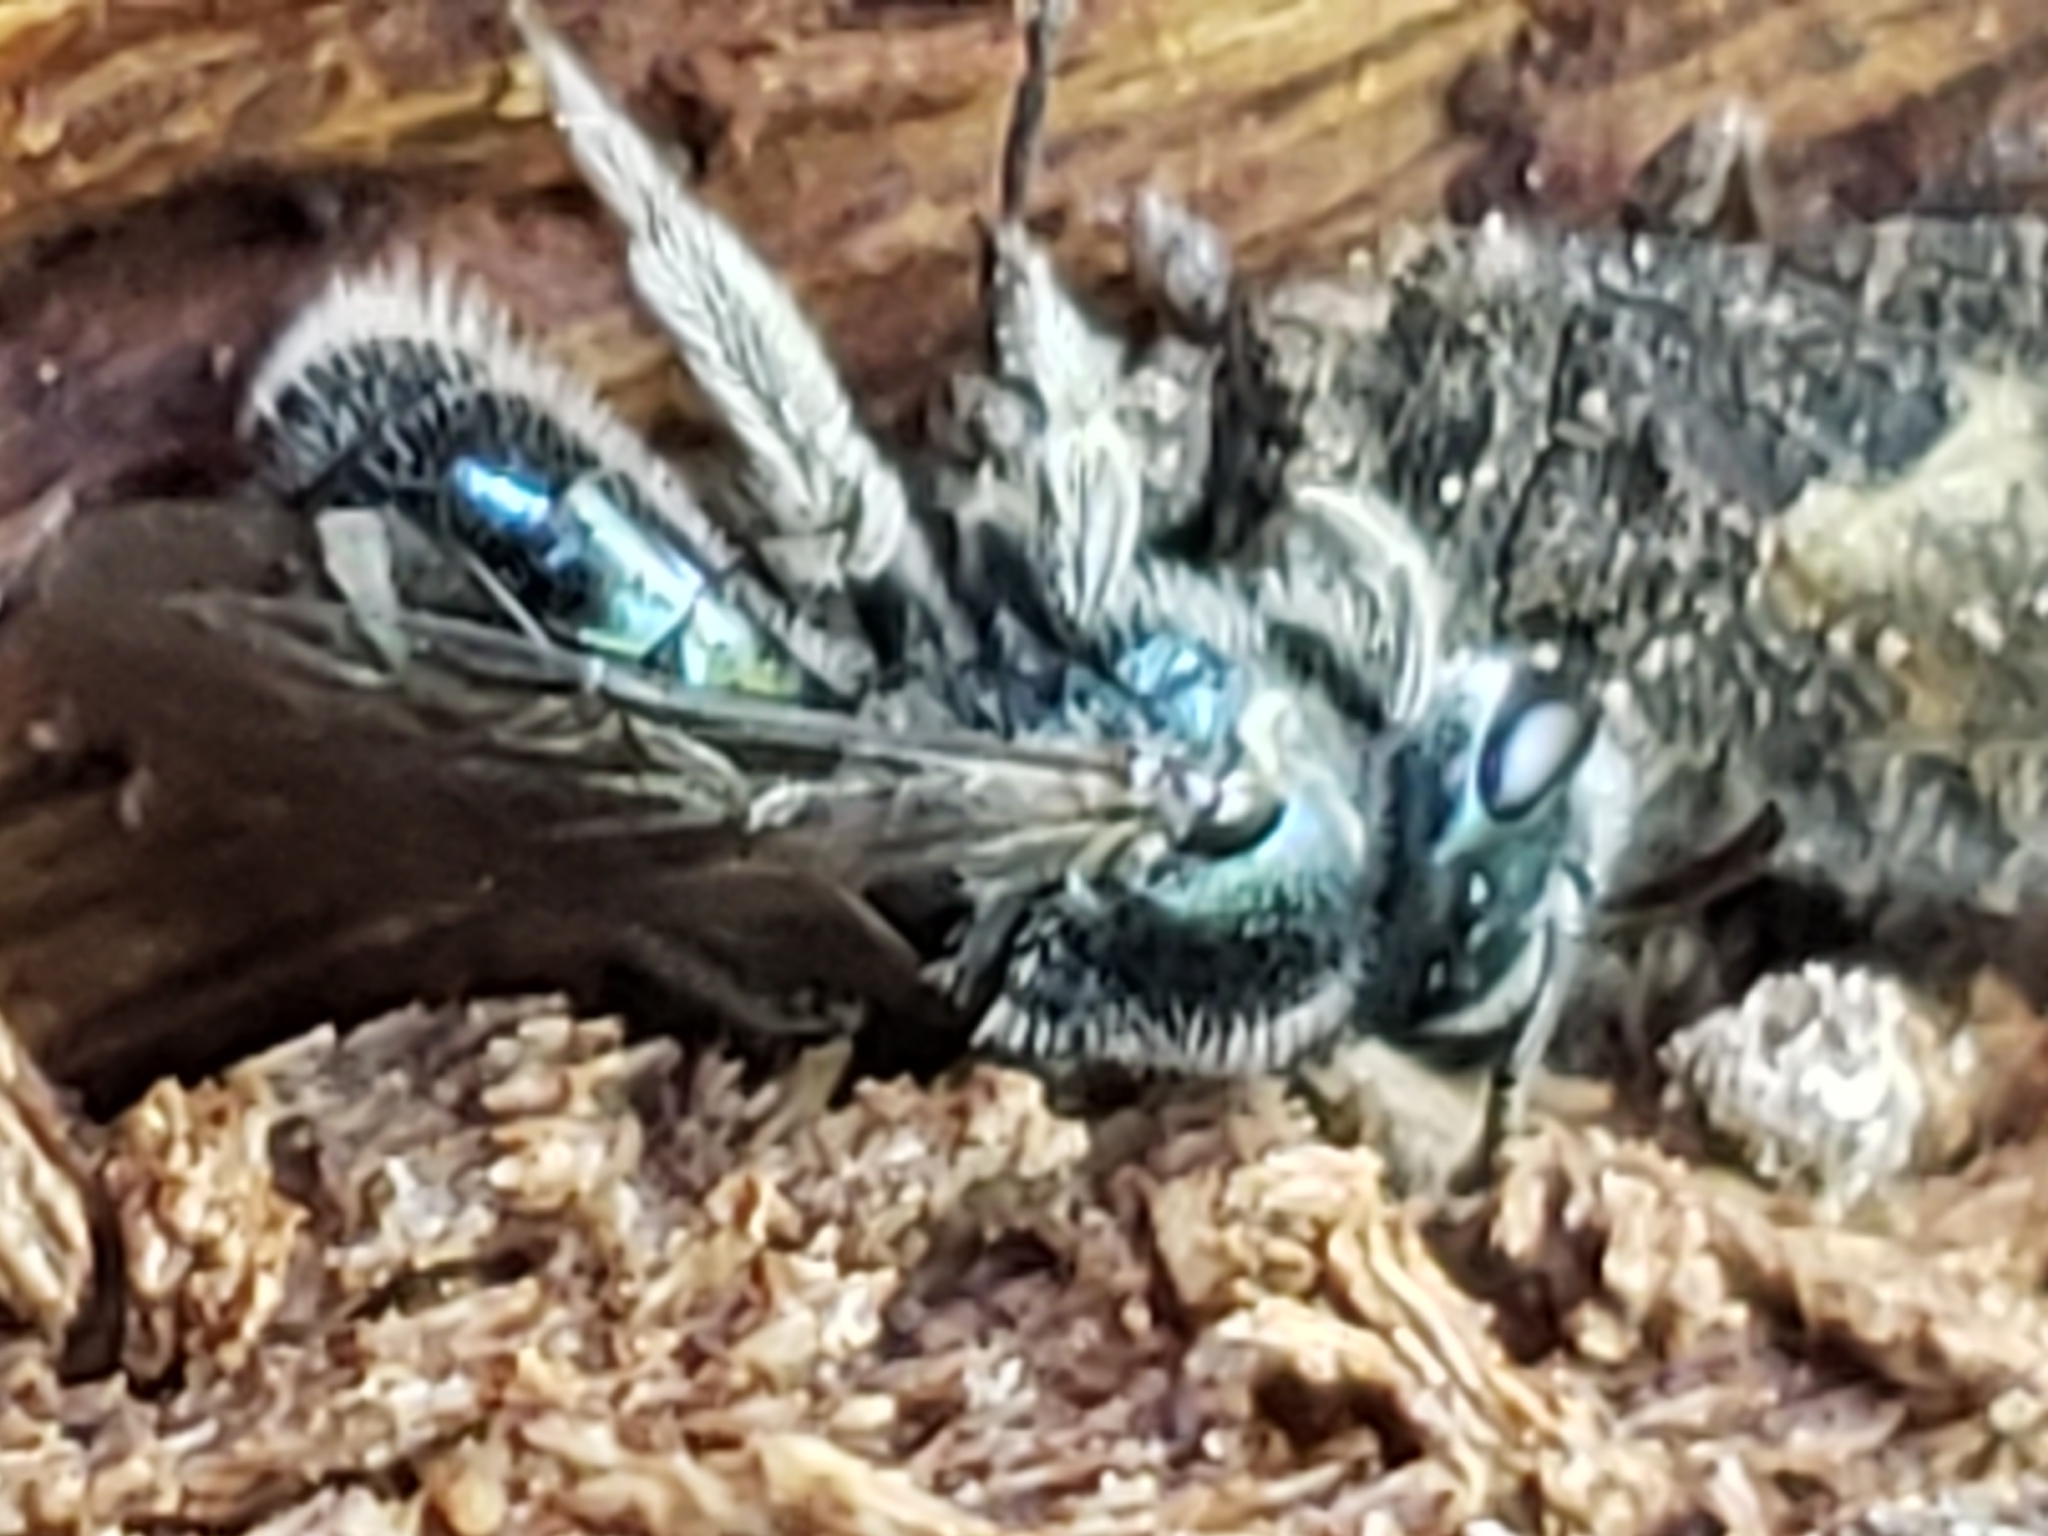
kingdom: Animalia
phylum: Arthropoda
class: Insecta
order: Hymenoptera
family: Halictidae
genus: Lasioglossum
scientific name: Lasioglossum coeruleum
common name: Deep-blue sweat bee
